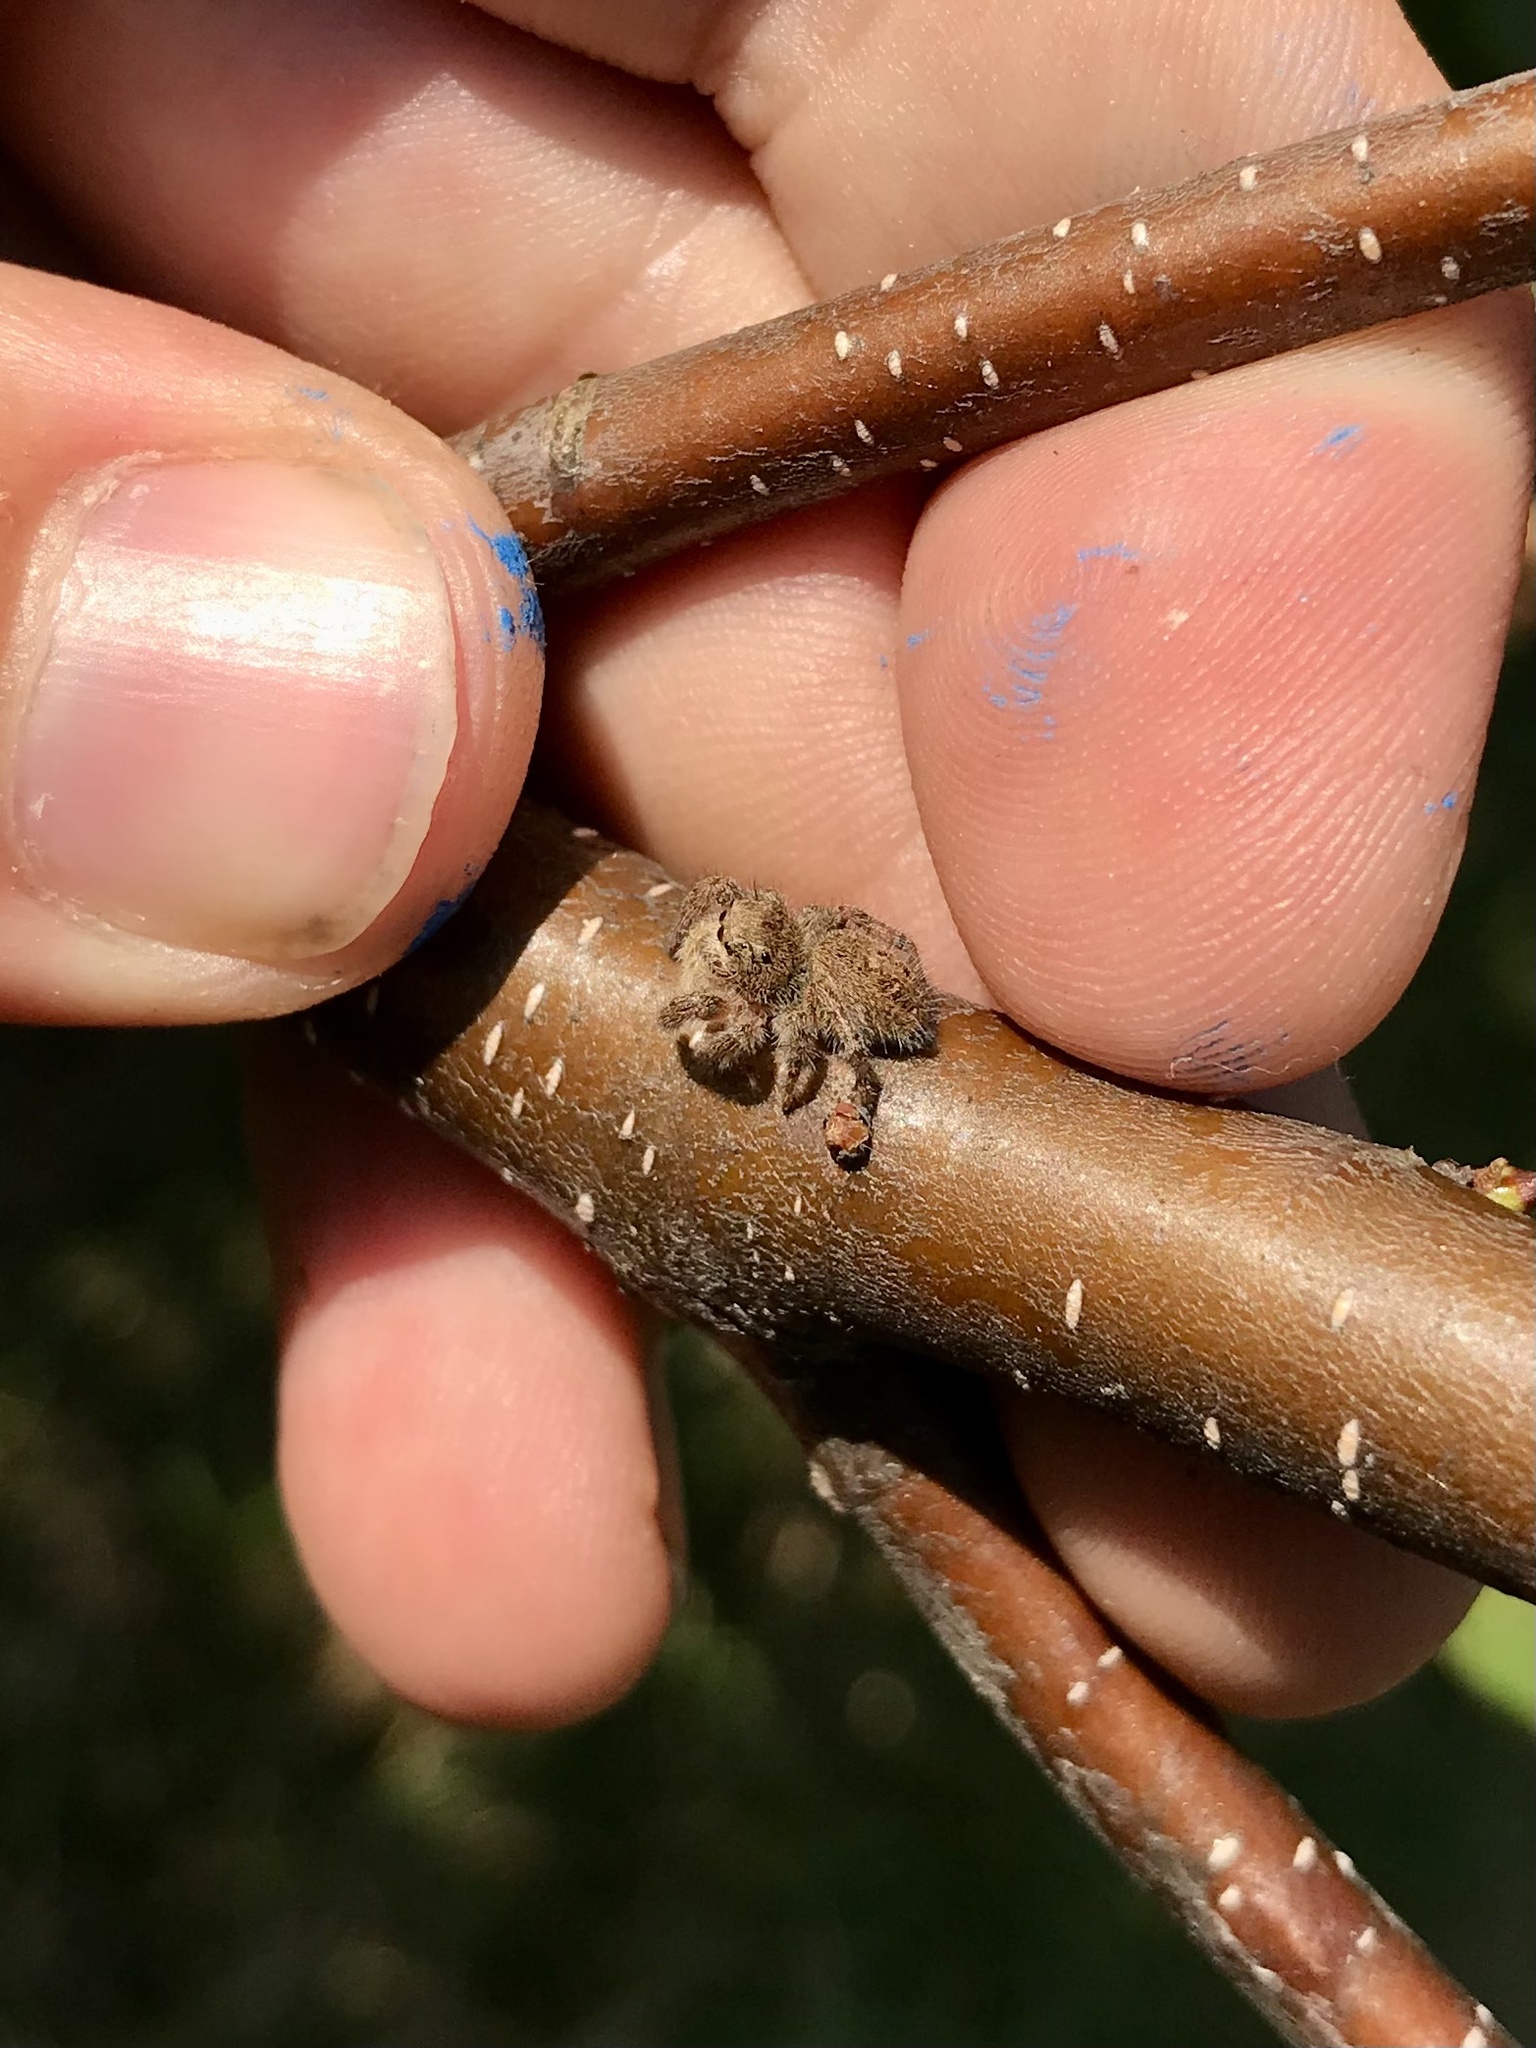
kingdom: Animalia
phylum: Arthropoda
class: Arachnida
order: Araneae
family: Salticidae
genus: Phidippus
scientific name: Phidippus princeps
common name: Grayish jumping spider
